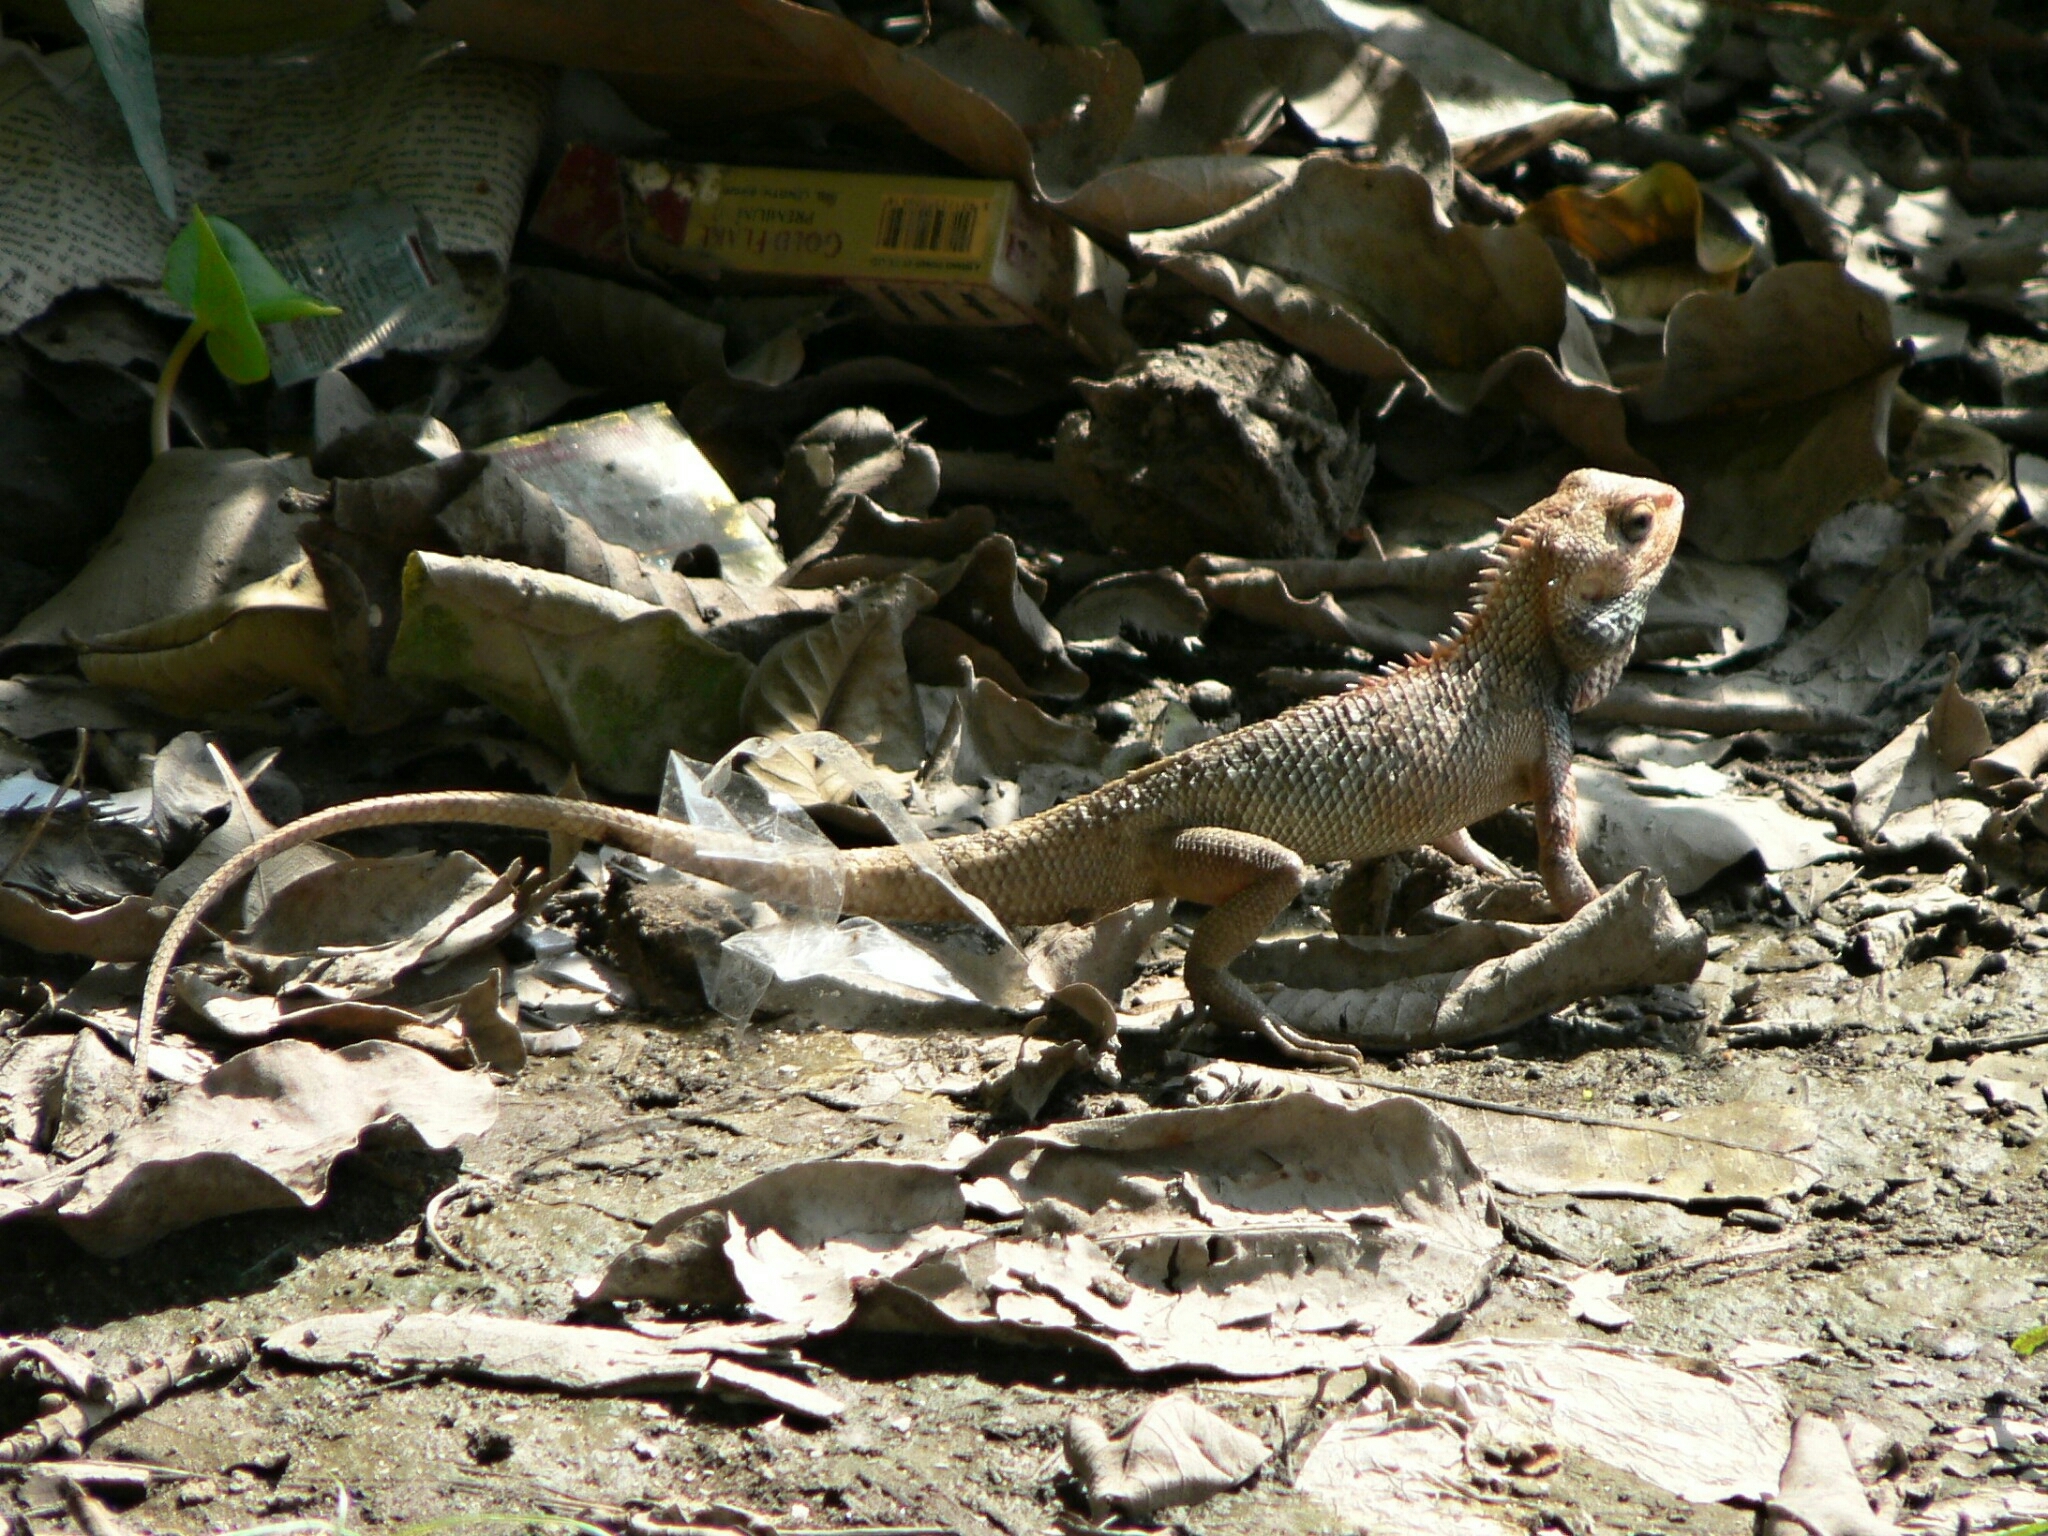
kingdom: Animalia
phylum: Chordata
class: Squamata
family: Agamidae
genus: Calotes
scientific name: Calotes versicolor
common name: Oriental garden lizard
